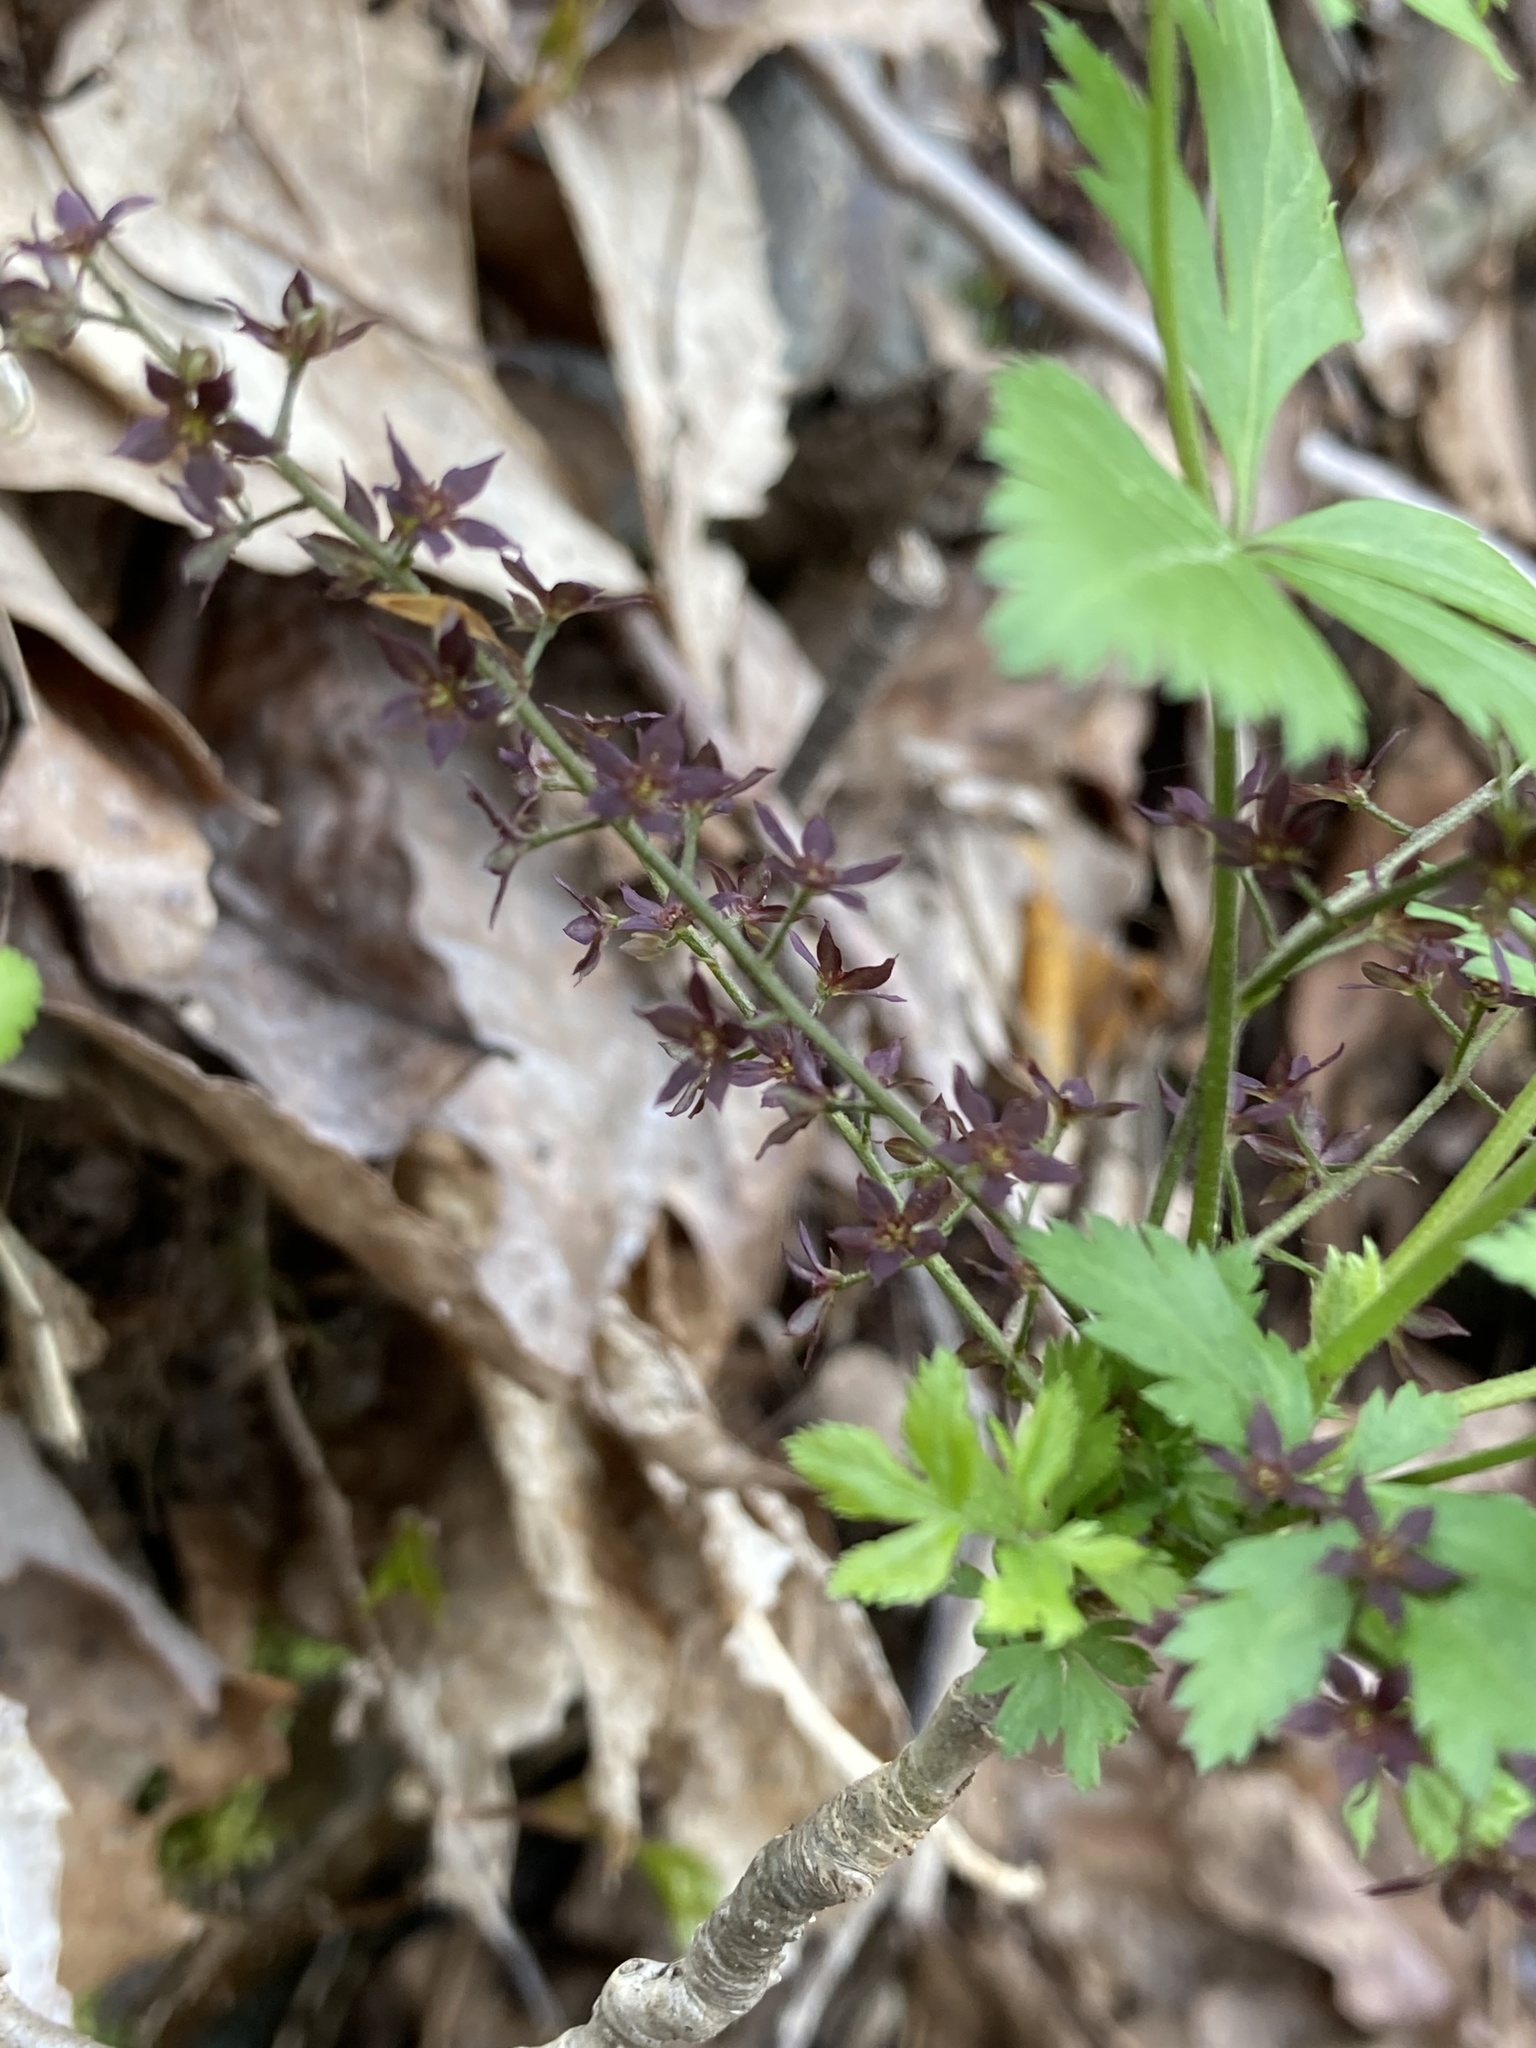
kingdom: Plantae
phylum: Tracheophyta
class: Magnoliopsida
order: Ranunculales
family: Ranunculaceae
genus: Xanthorhiza
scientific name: Xanthorhiza simplicissima
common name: Yellowroot
